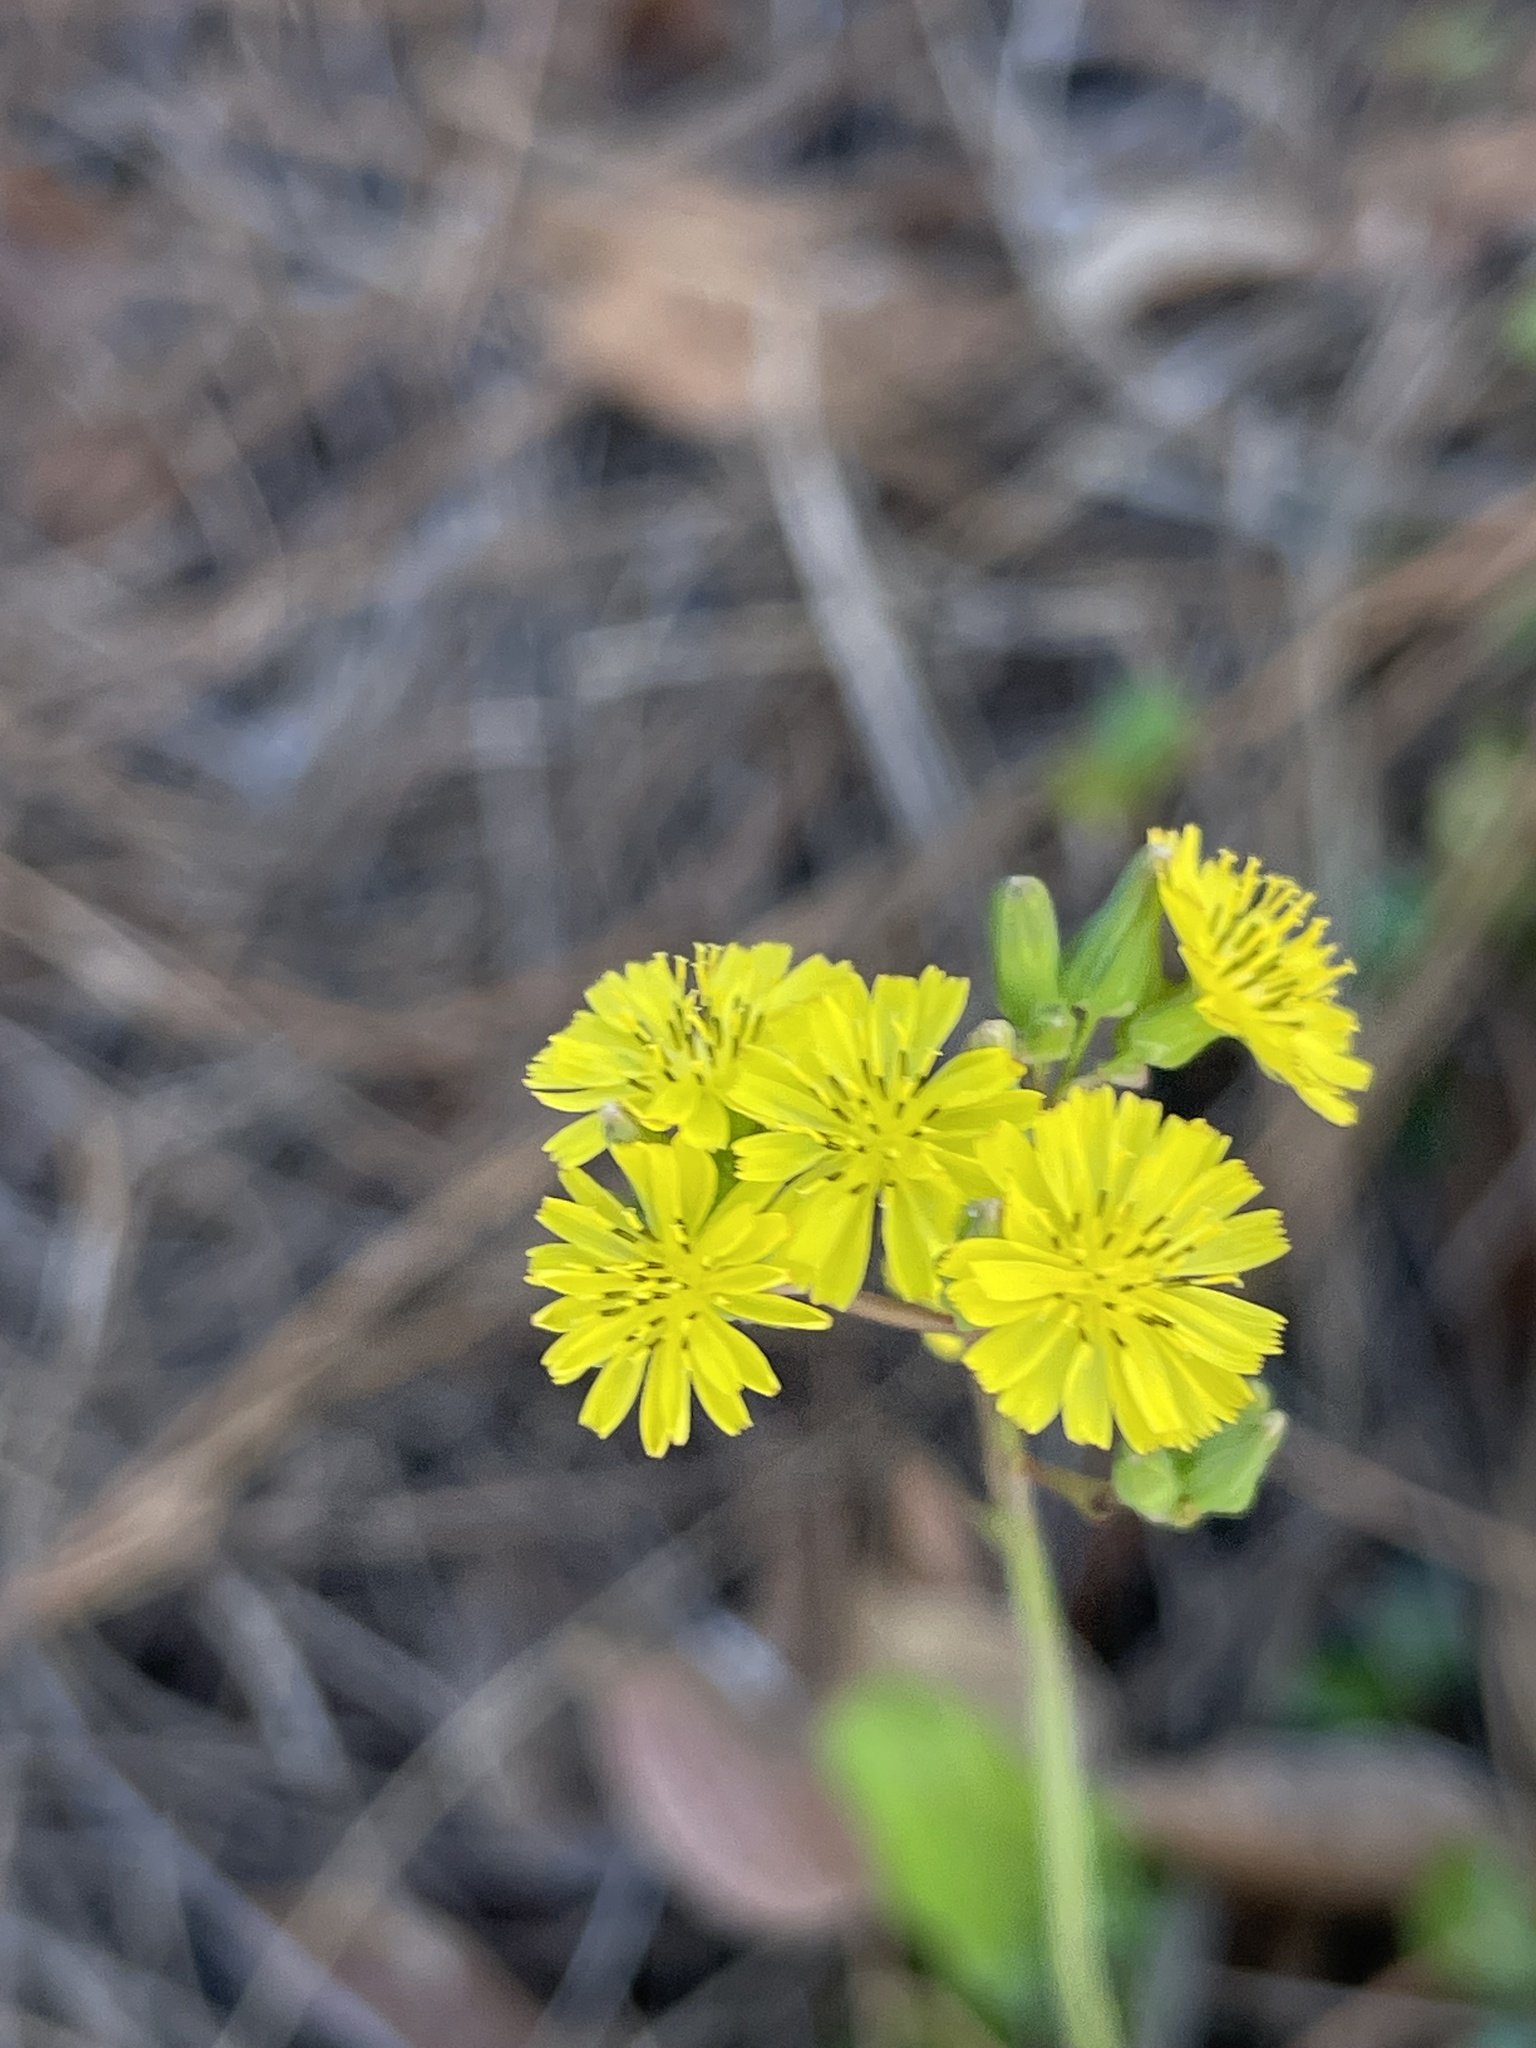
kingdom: Plantae
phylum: Tracheophyta
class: Magnoliopsida
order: Asterales
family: Asteraceae
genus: Youngia
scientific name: Youngia japonica
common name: Oriental false hawksbeard
